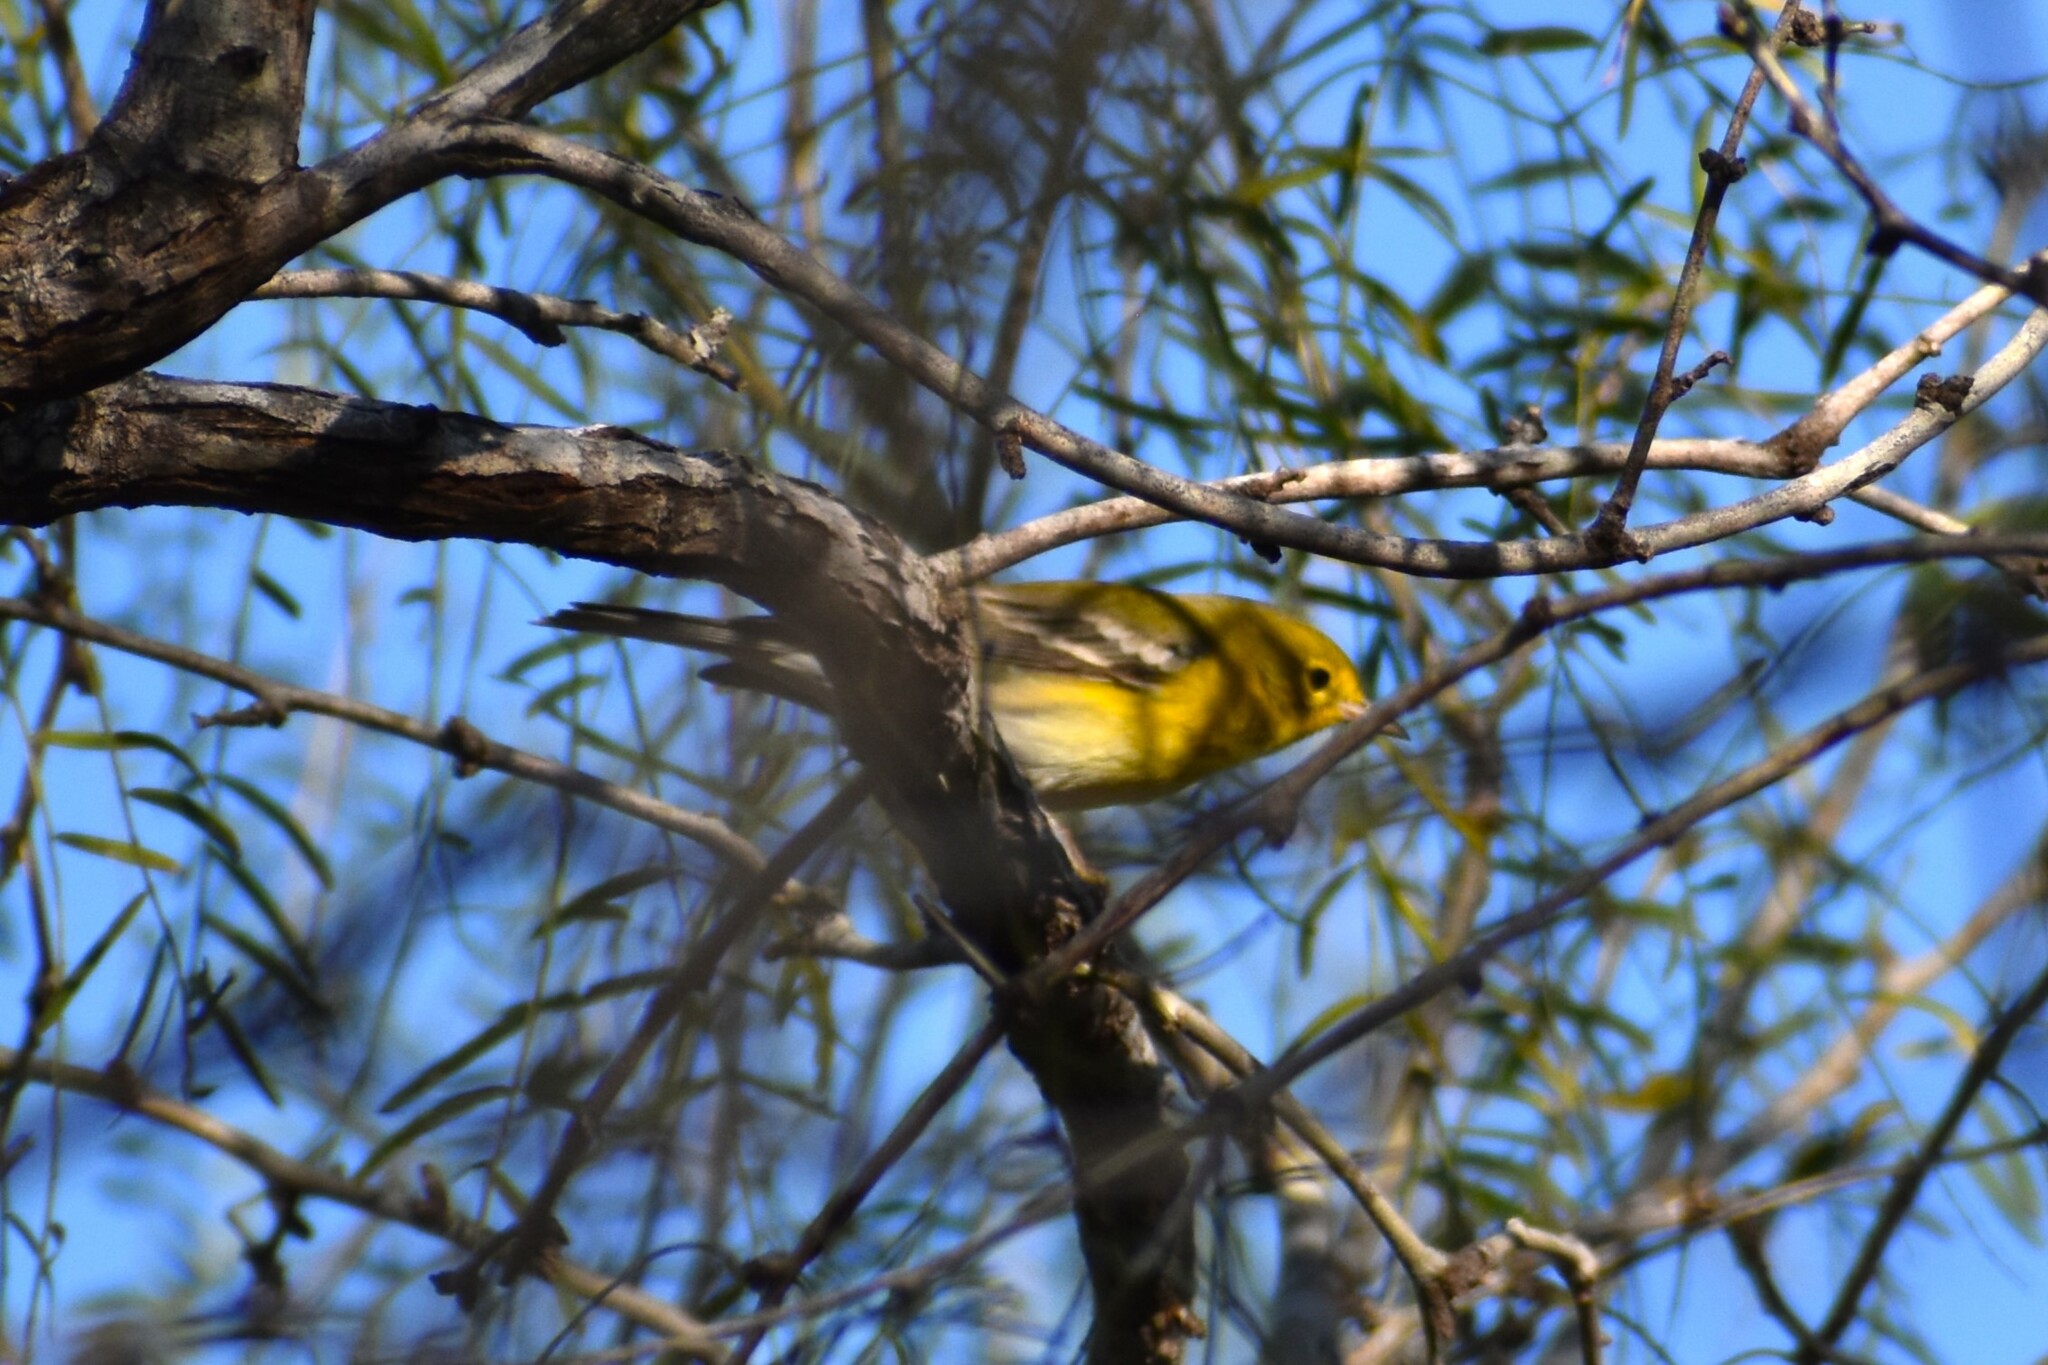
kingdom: Animalia
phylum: Chordata
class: Aves
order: Passeriformes
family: Parulidae
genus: Setophaga
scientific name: Setophaga pinus
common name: Pine warbler
